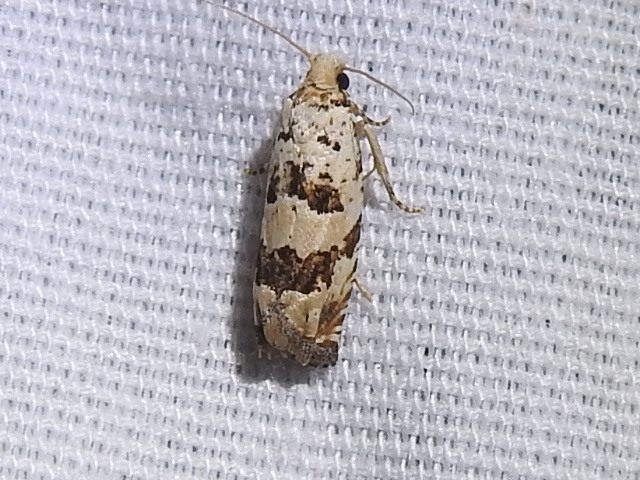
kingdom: Animalia
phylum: Arthropoda
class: Insecta
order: Lepidoptera
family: Tortricidae
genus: Pelochrista
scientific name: Pelochrista matutina
